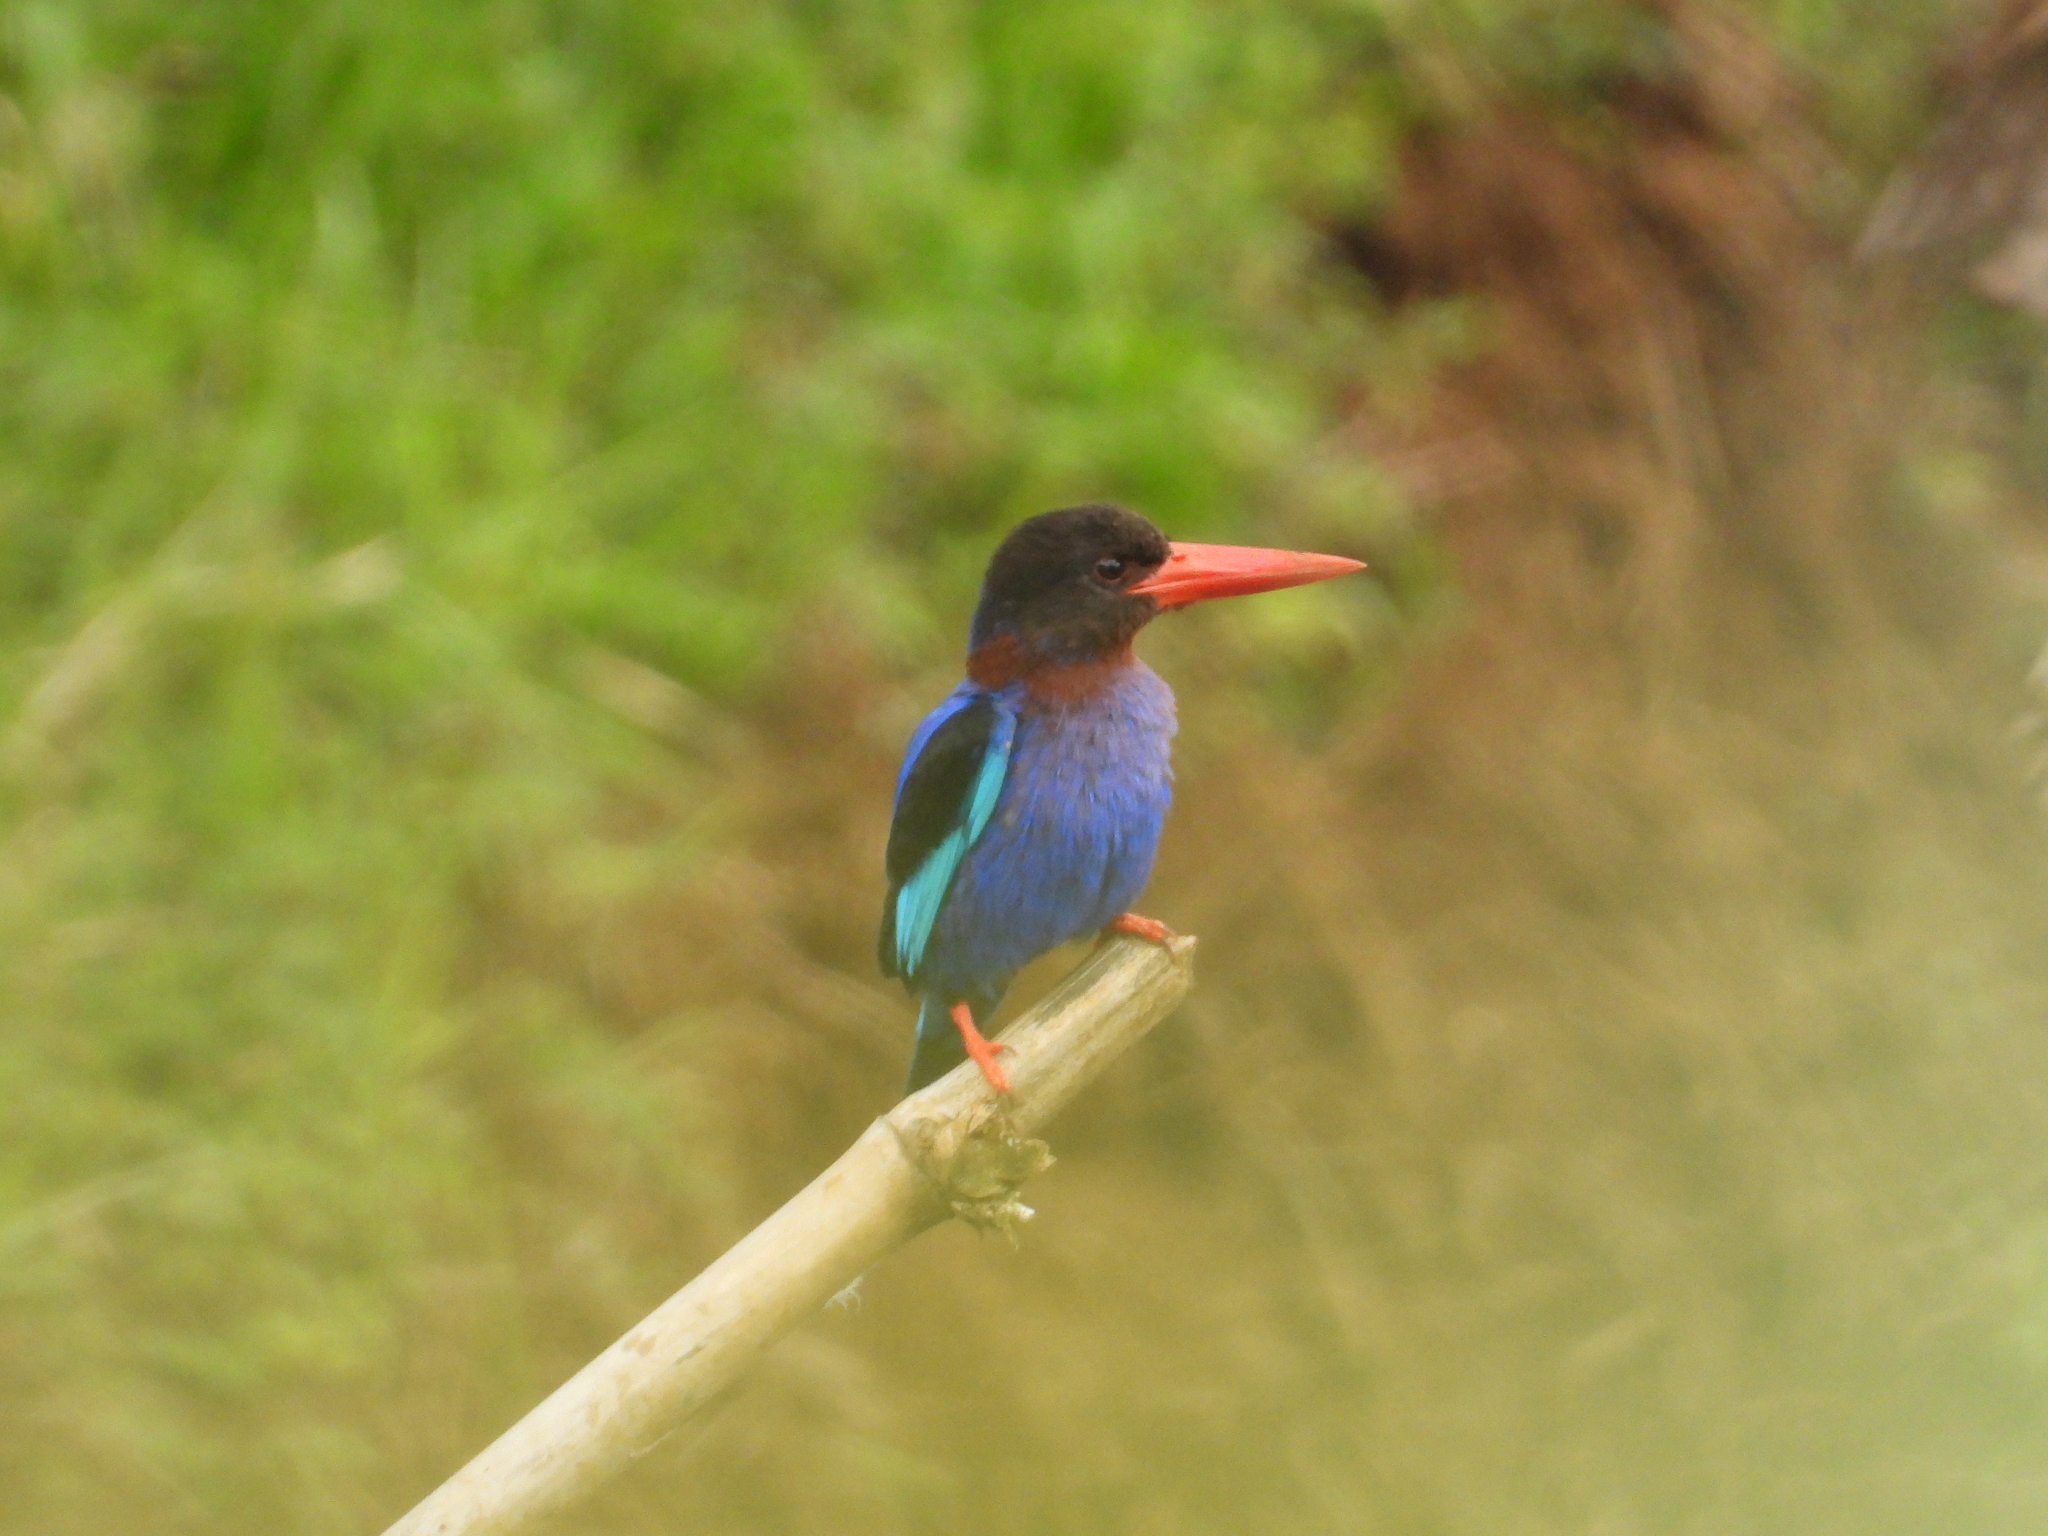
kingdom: Animalia
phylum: Chordata
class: Aves
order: Coraciiformes
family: Alcedinidae
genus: Halcyon
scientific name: Halcyon cyanoventris
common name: Javan kingfisher
